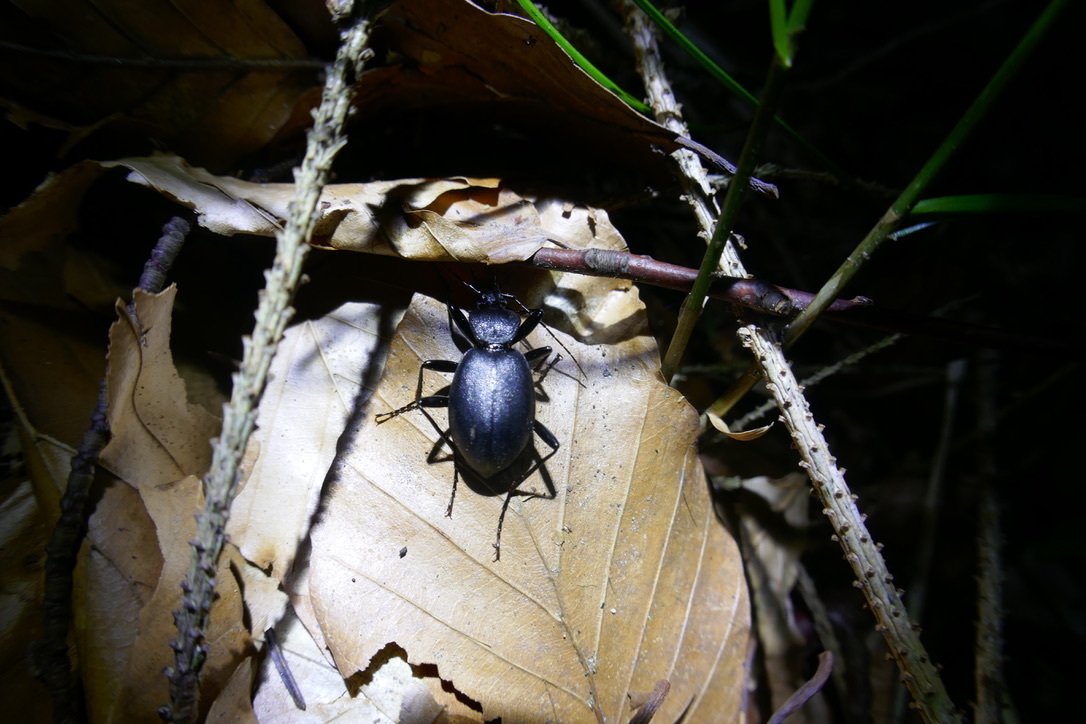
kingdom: Animalia
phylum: Arthropoda
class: Insecta
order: Coleoptera
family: Carabidae
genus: Cychrus
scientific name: Cychrus caraboides
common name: Snail hunter
